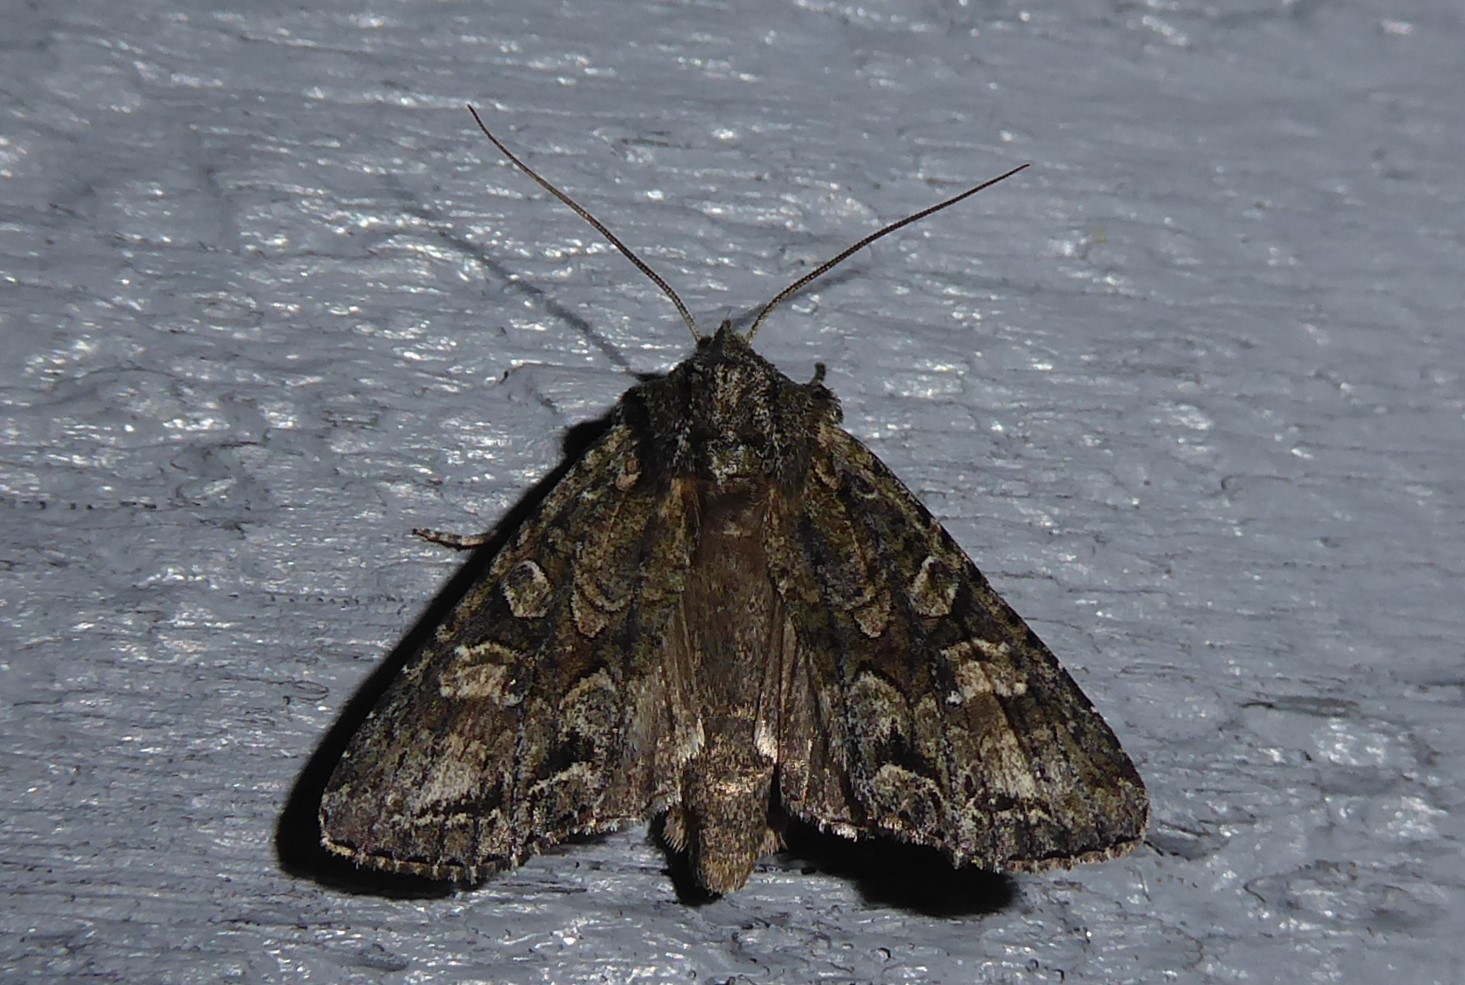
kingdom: Animalia
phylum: Arthropoda
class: Insecta
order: Lepidoptera
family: Noctuidae
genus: Ichneutica
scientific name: Ichneutica mutans
